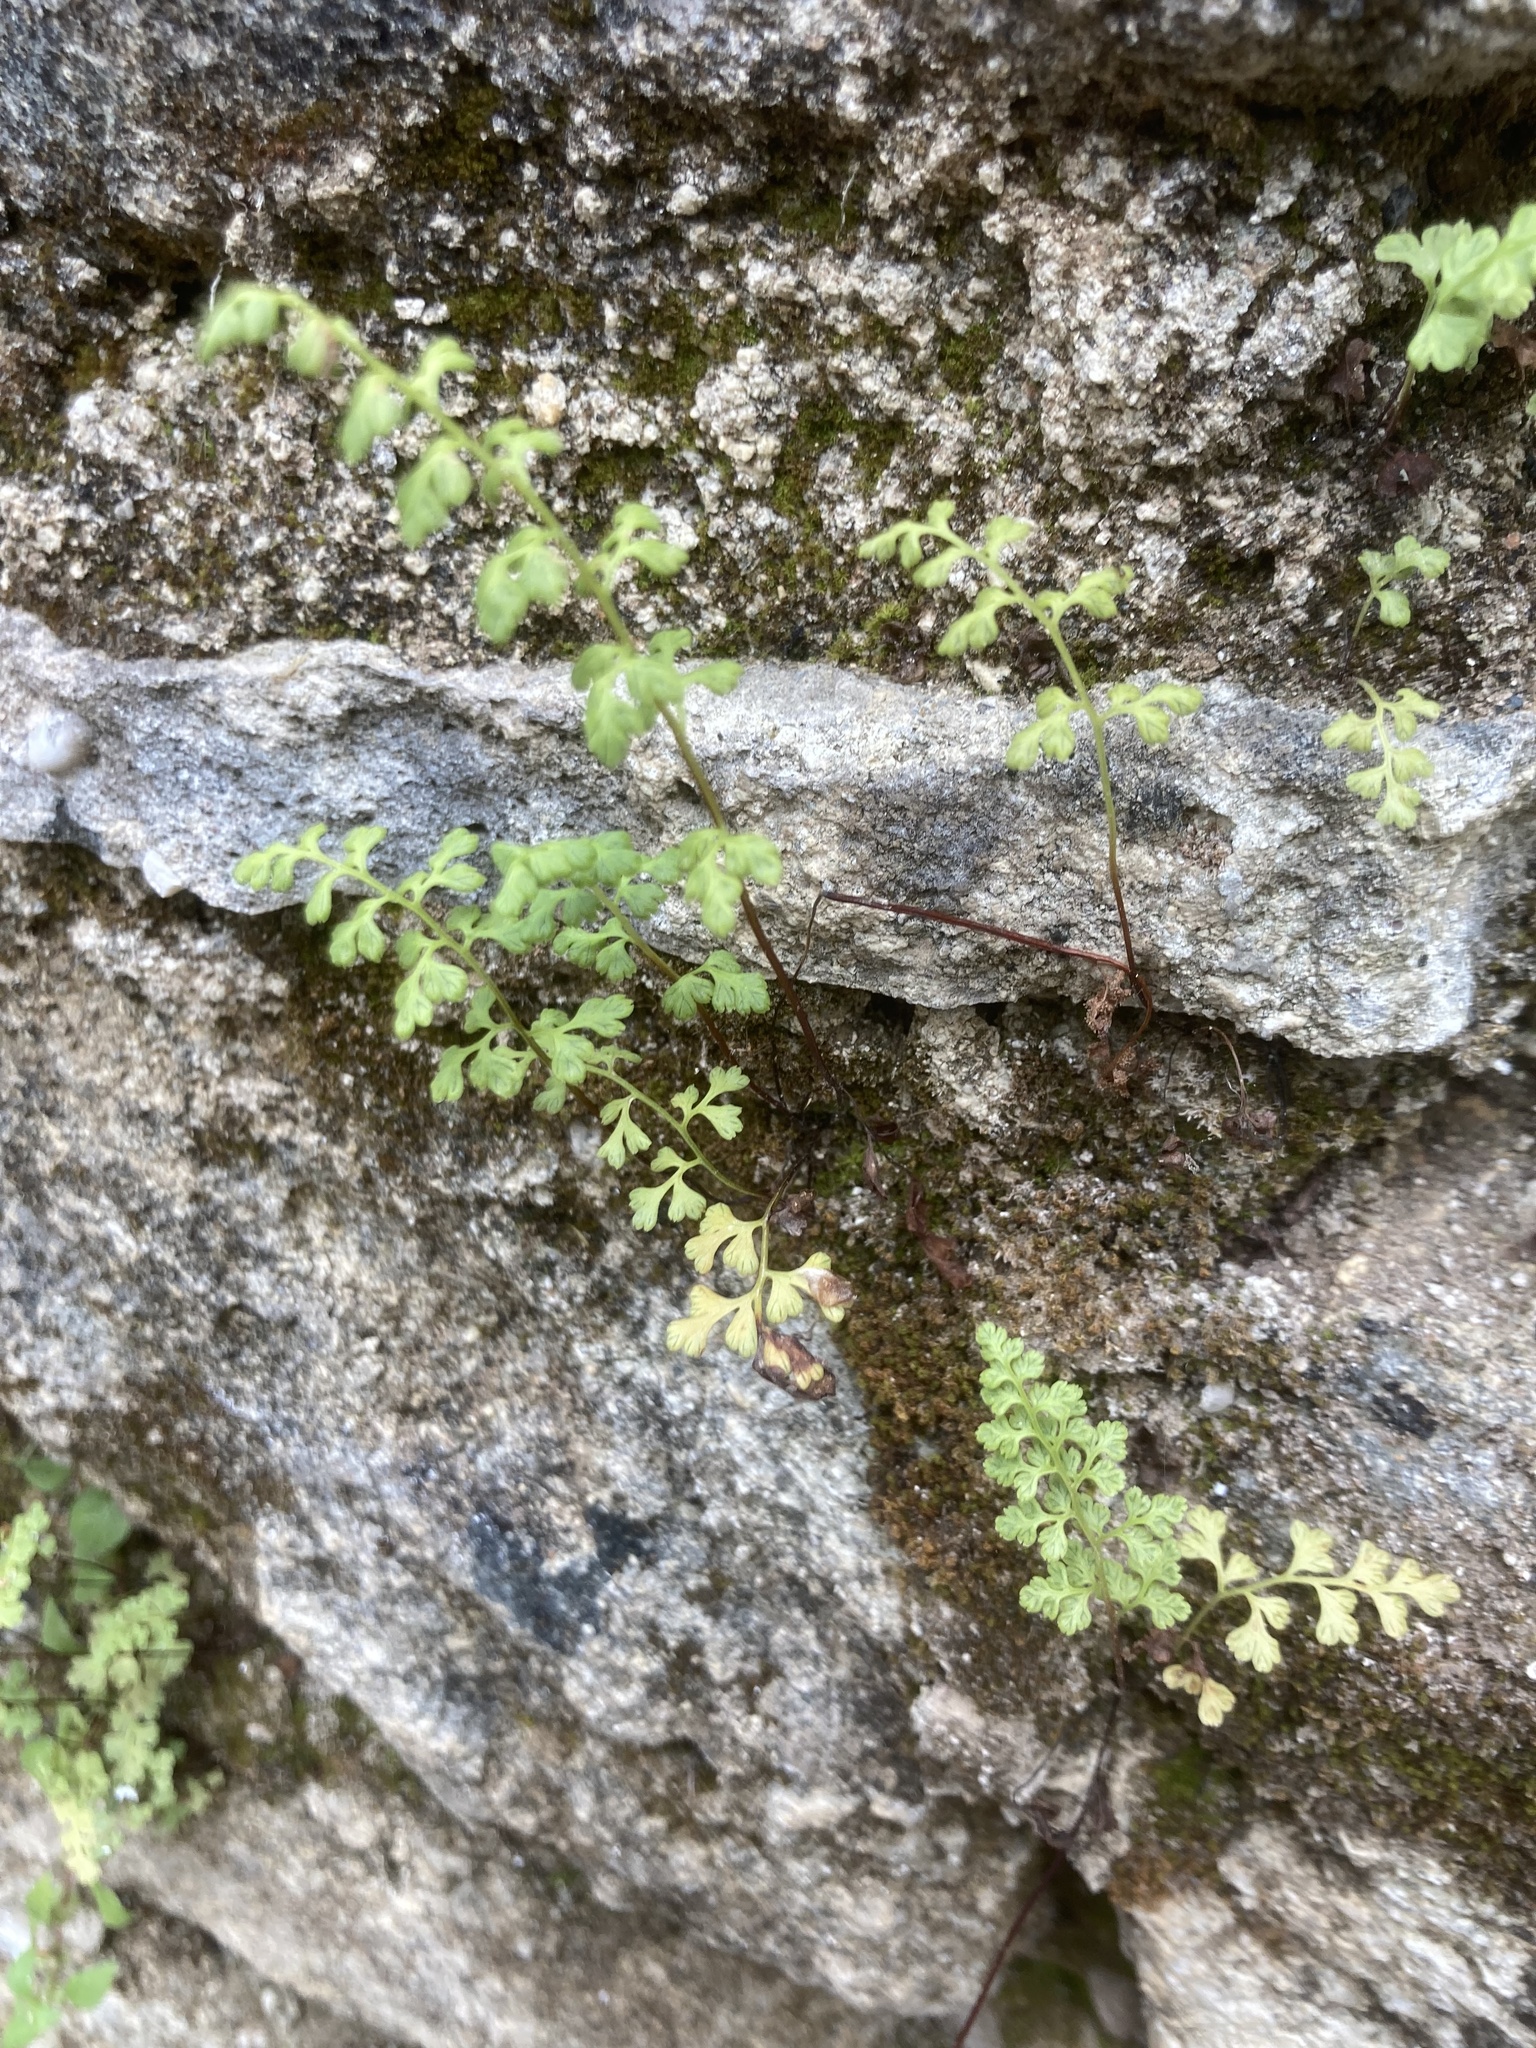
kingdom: Plantae
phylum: Tracheophyta
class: Polypodiopsida
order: Polypodiales
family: Pteridaceae
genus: Anogramma
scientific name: Anogramma leptophylla
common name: Jersey fern
